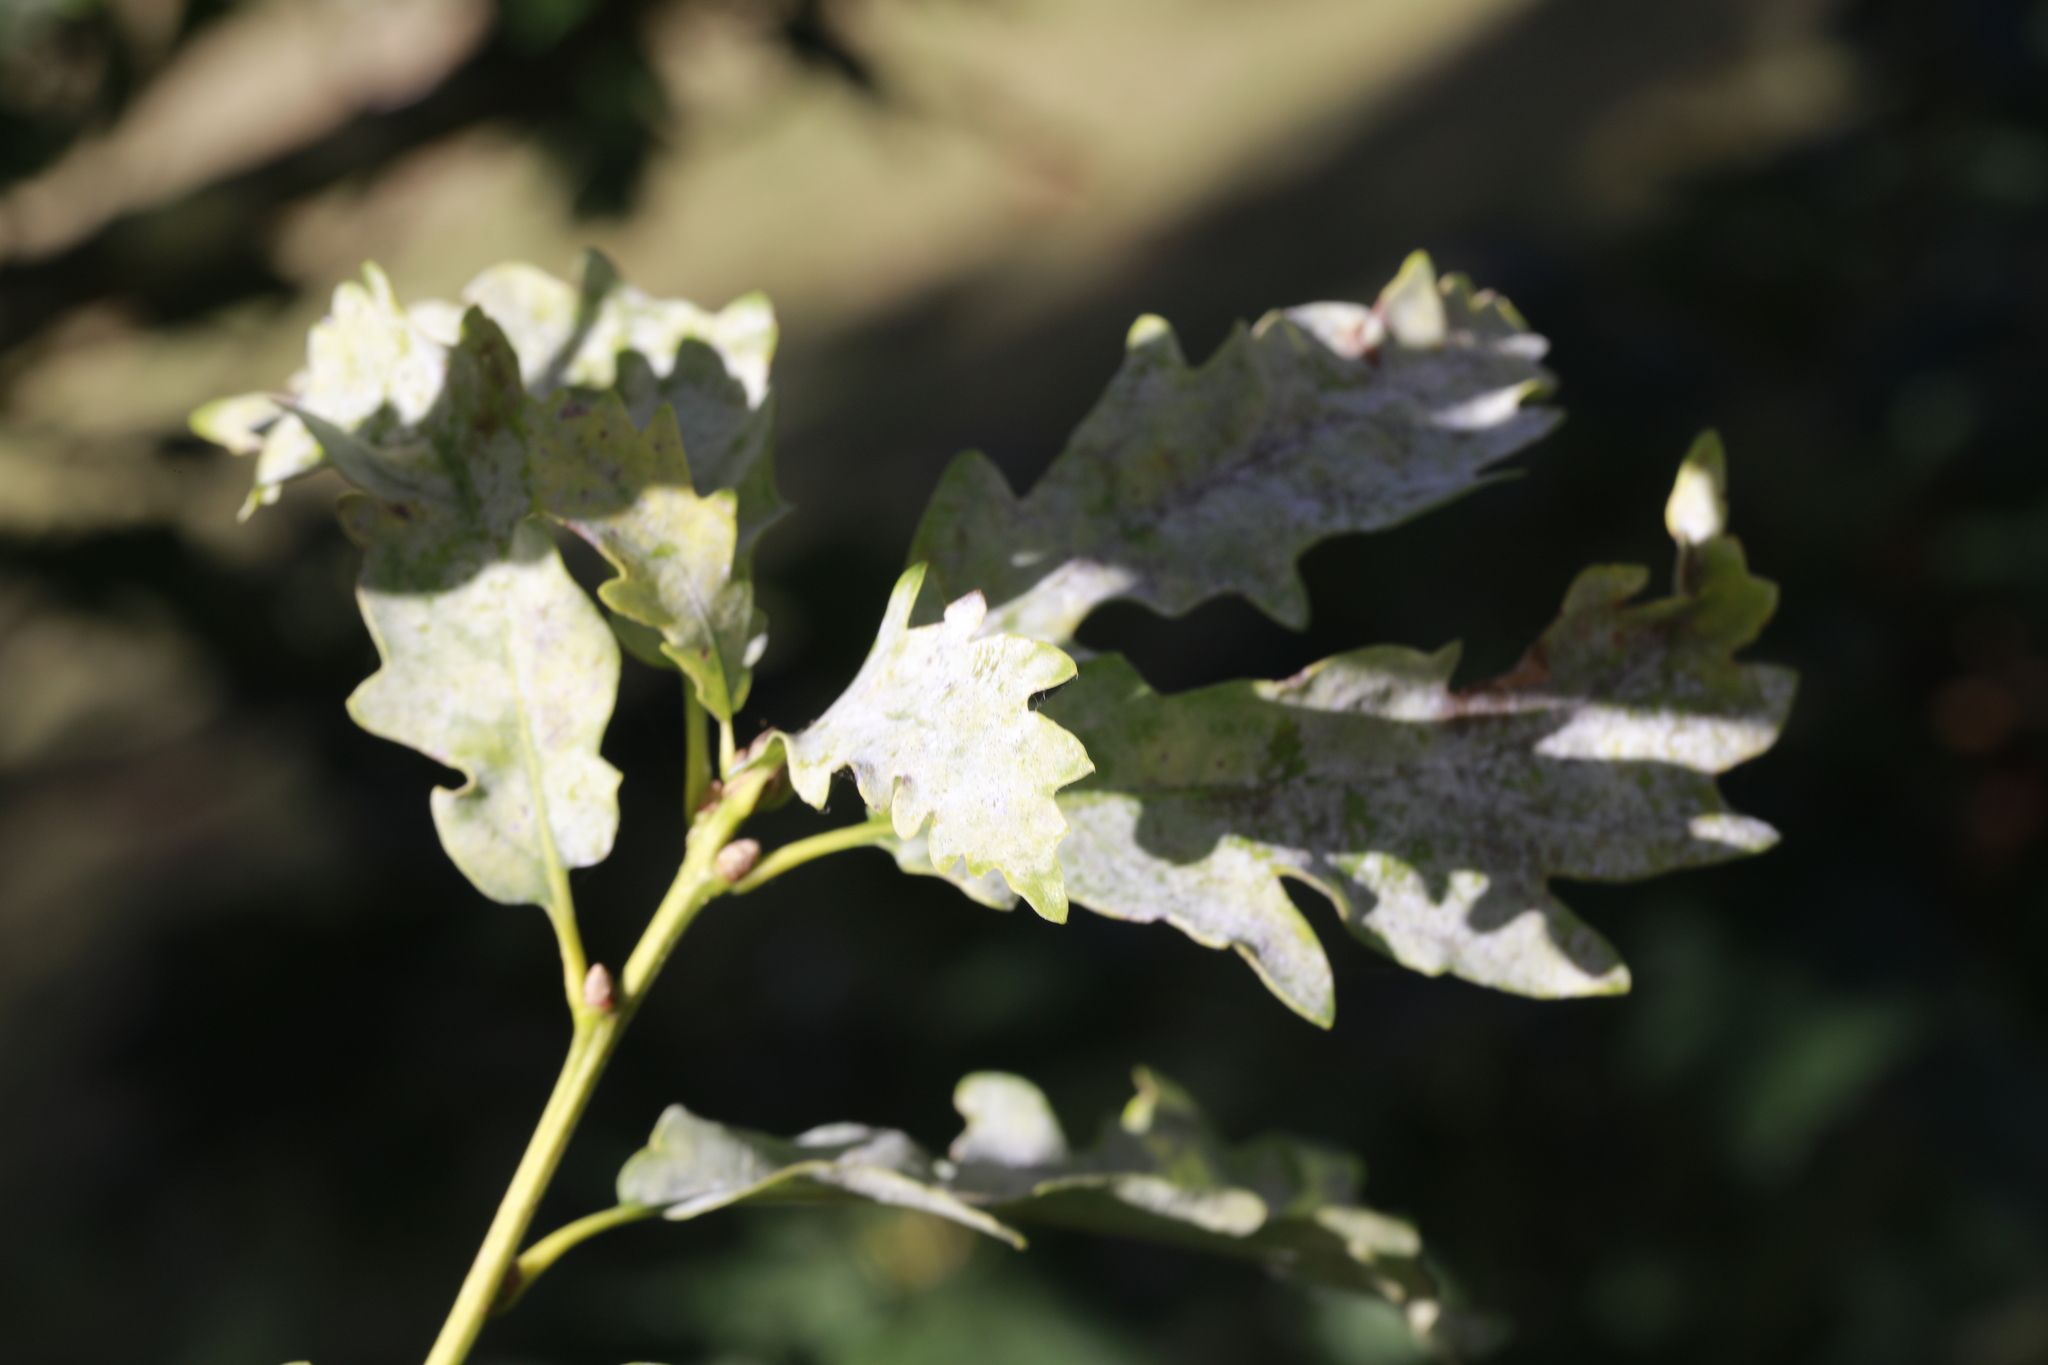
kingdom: Fungi
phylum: Ascomycota
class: Leotiomycetes
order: Helotiales
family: Erysiphaceae
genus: Erysiphe
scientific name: Erysiphe alphitoides
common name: Oak mildew
